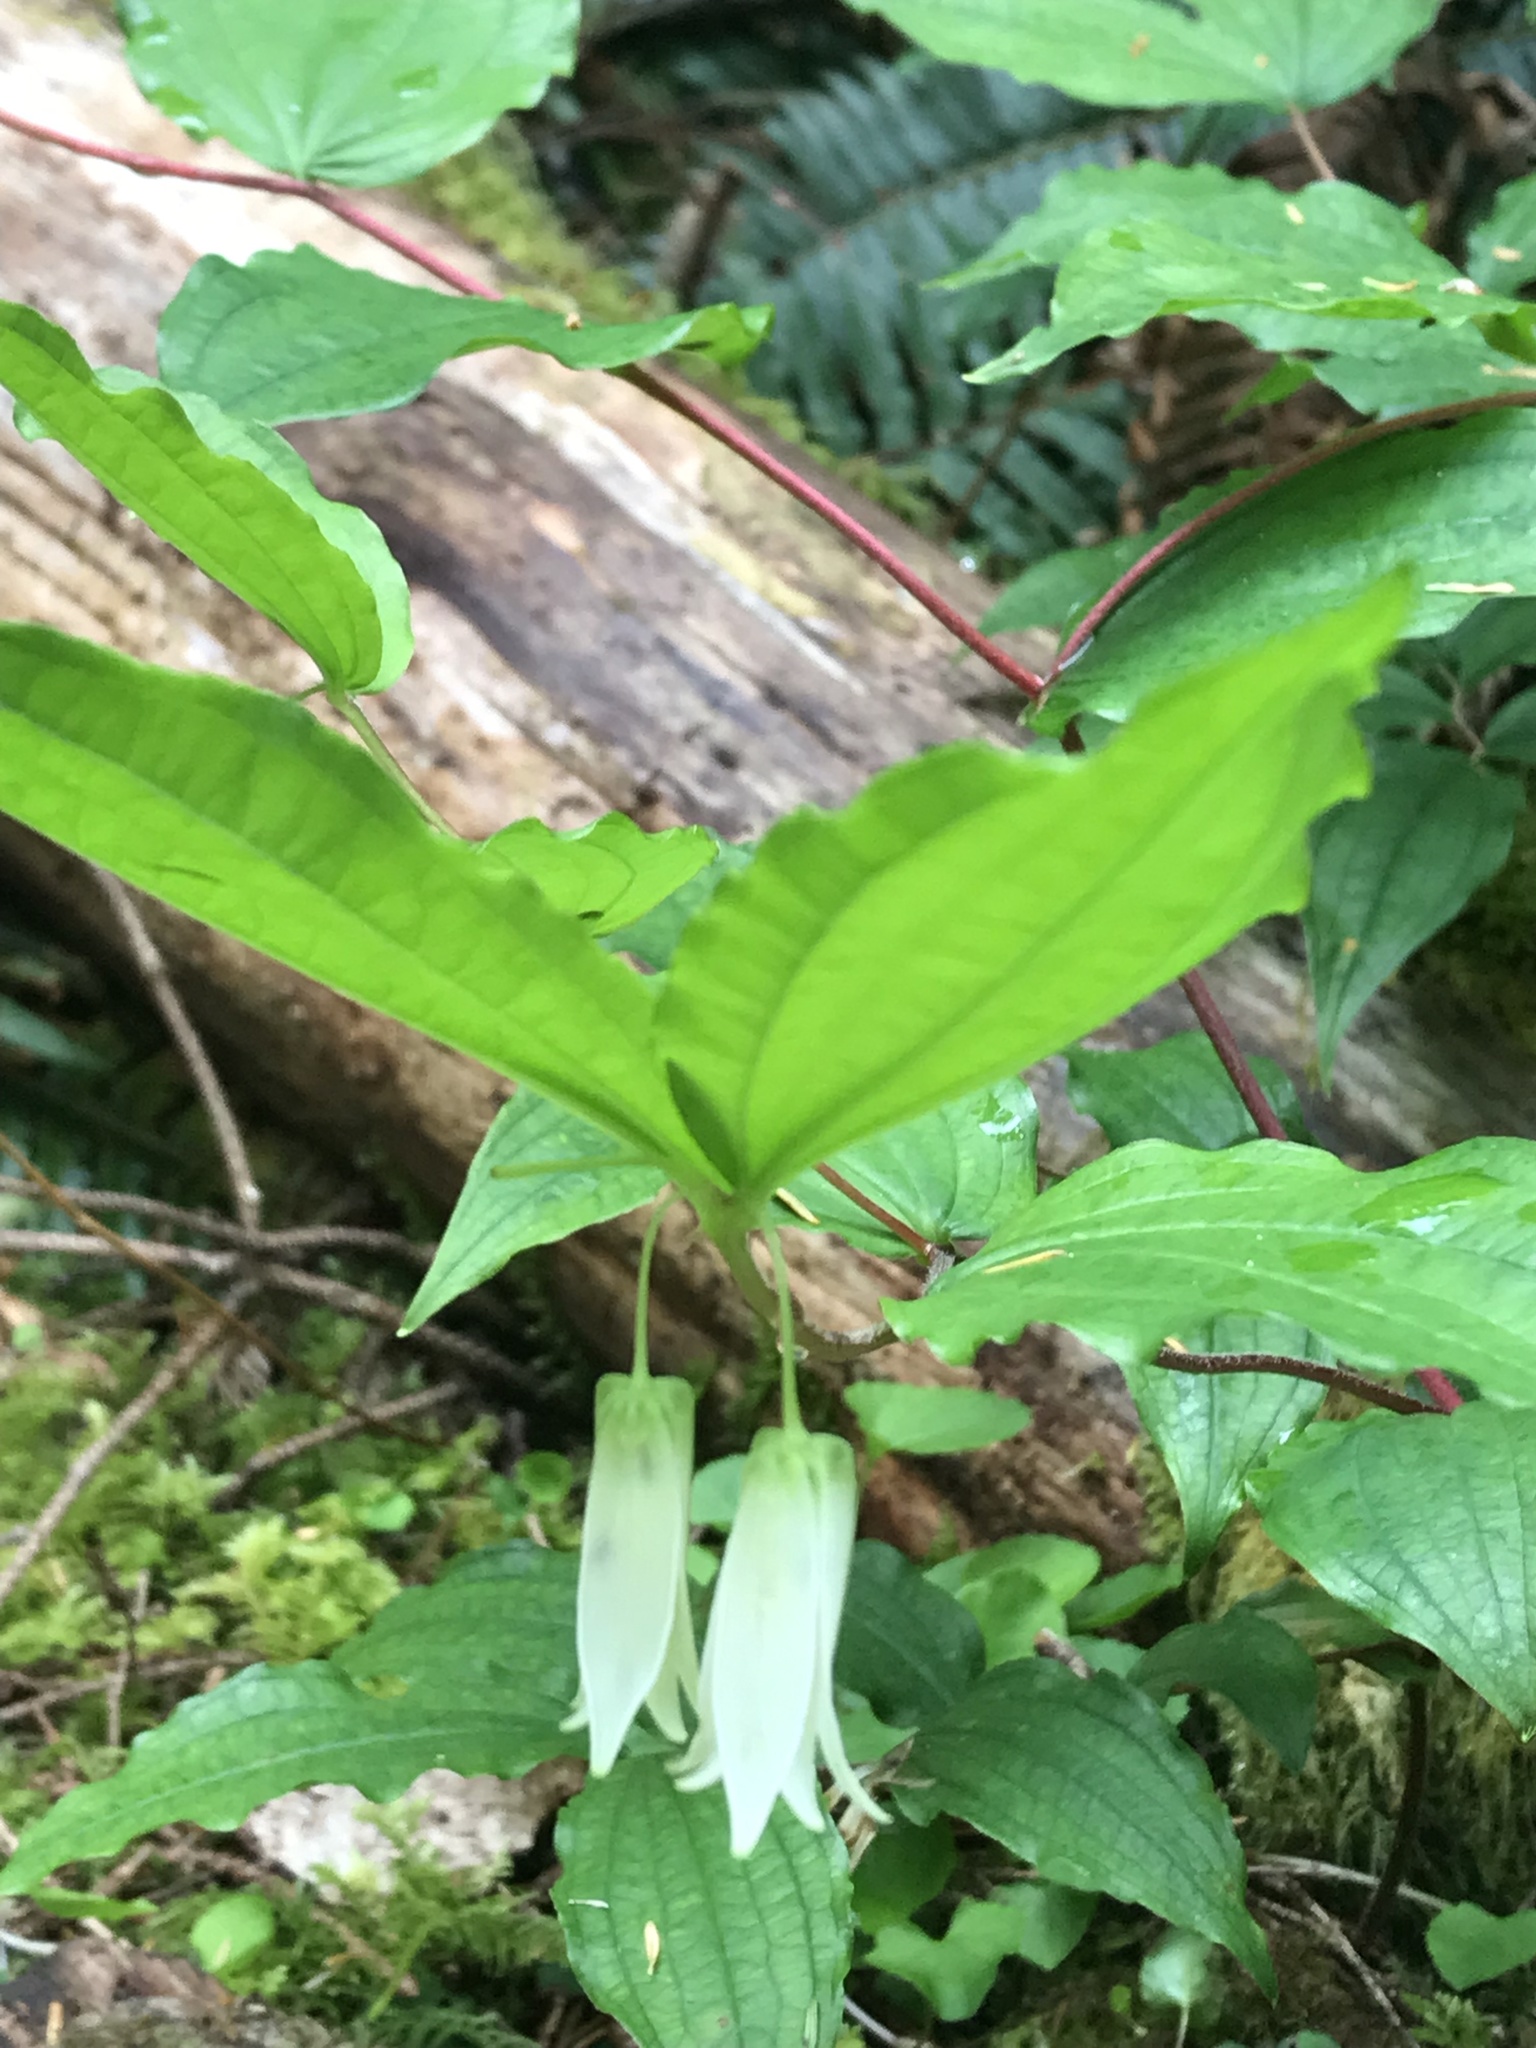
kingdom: Plantae
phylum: Tracheophyta
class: Liliopsida
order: Liliales
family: Liliaceae
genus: Prosartes
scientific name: Prosartes smithii
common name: Fairy-lantern
